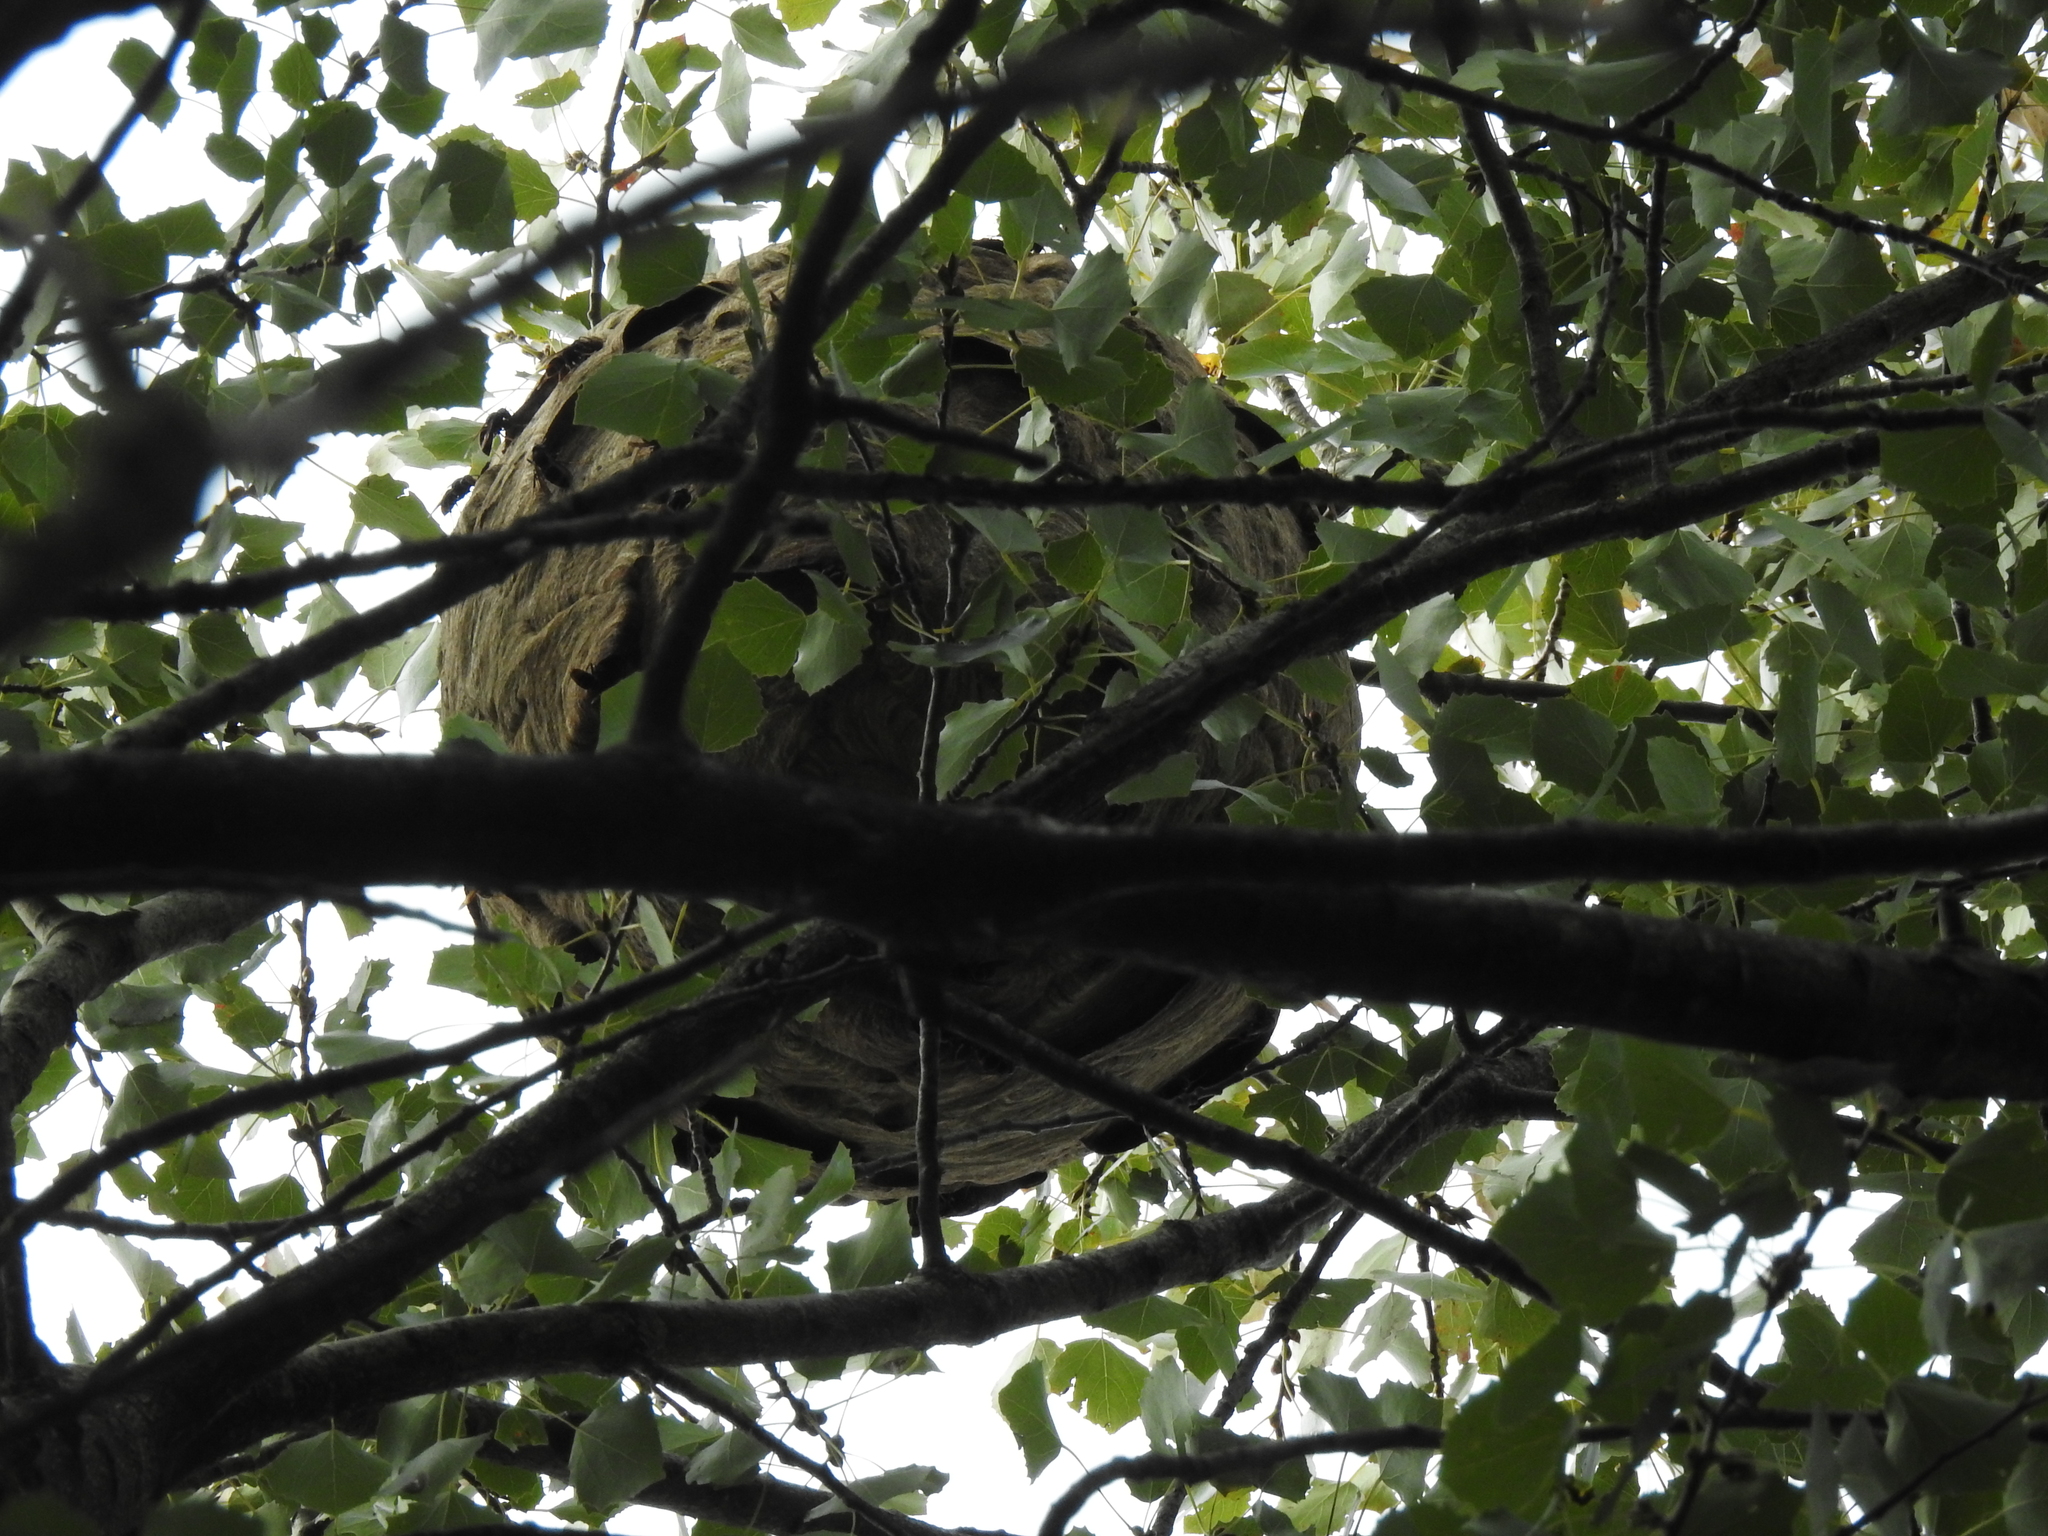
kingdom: Animalia
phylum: Arthropoda
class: Insecta
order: Hymenoptera
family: Vespidae
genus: Vespa
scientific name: Vespa velutina
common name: Asian hornet
